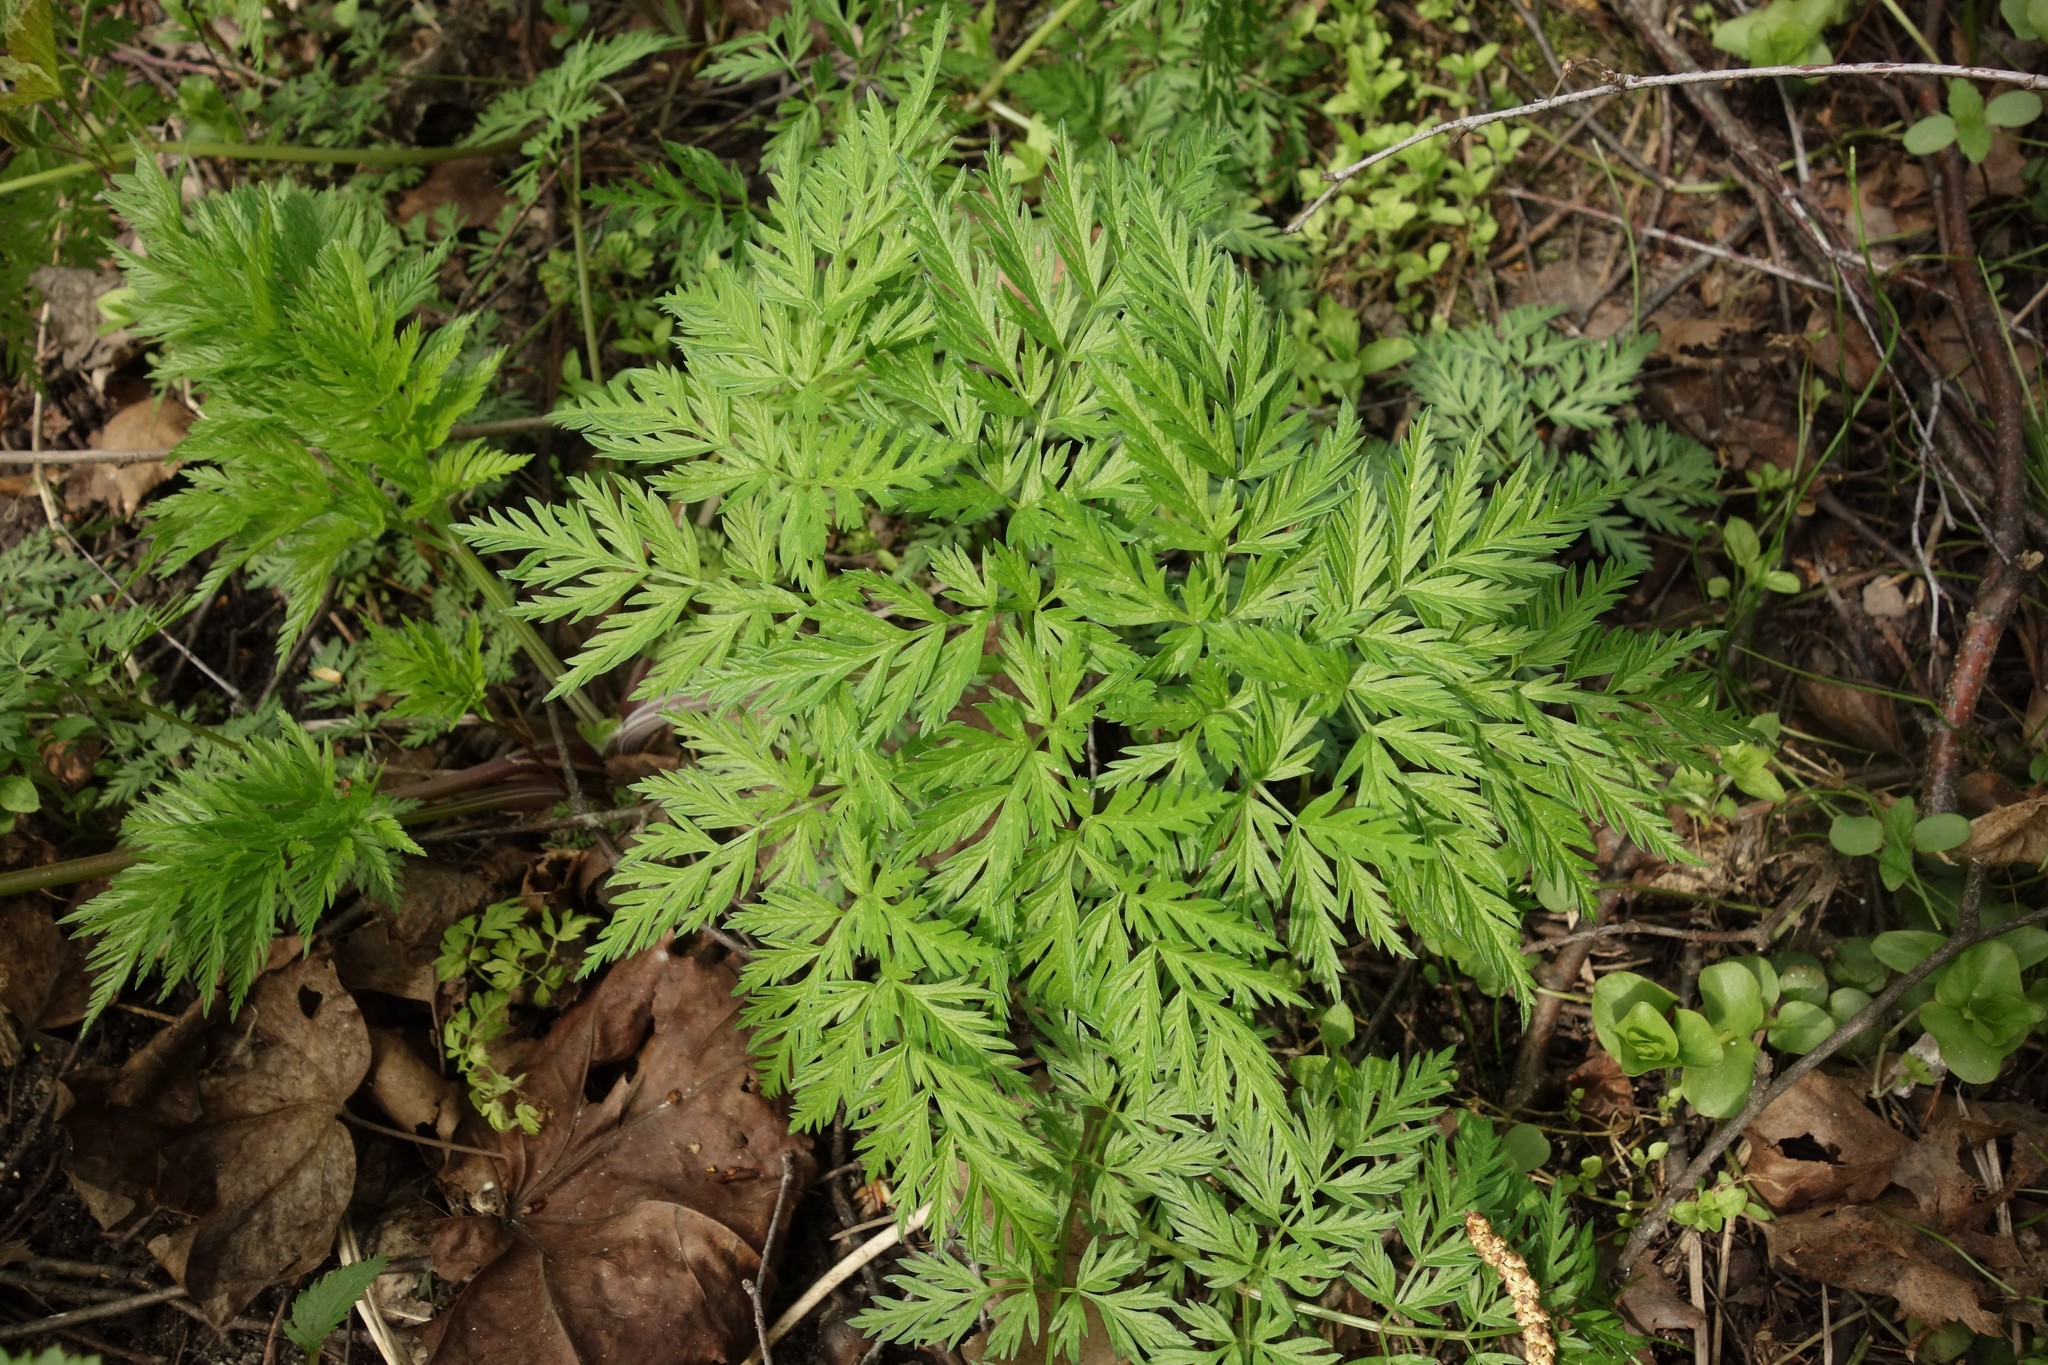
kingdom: Plantae
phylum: Tracheophyta
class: Magnoliopsida
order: Apiales
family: Apiaceae
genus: Anthriscus
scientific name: Anthriscus sylvestris
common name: Cow parsley
